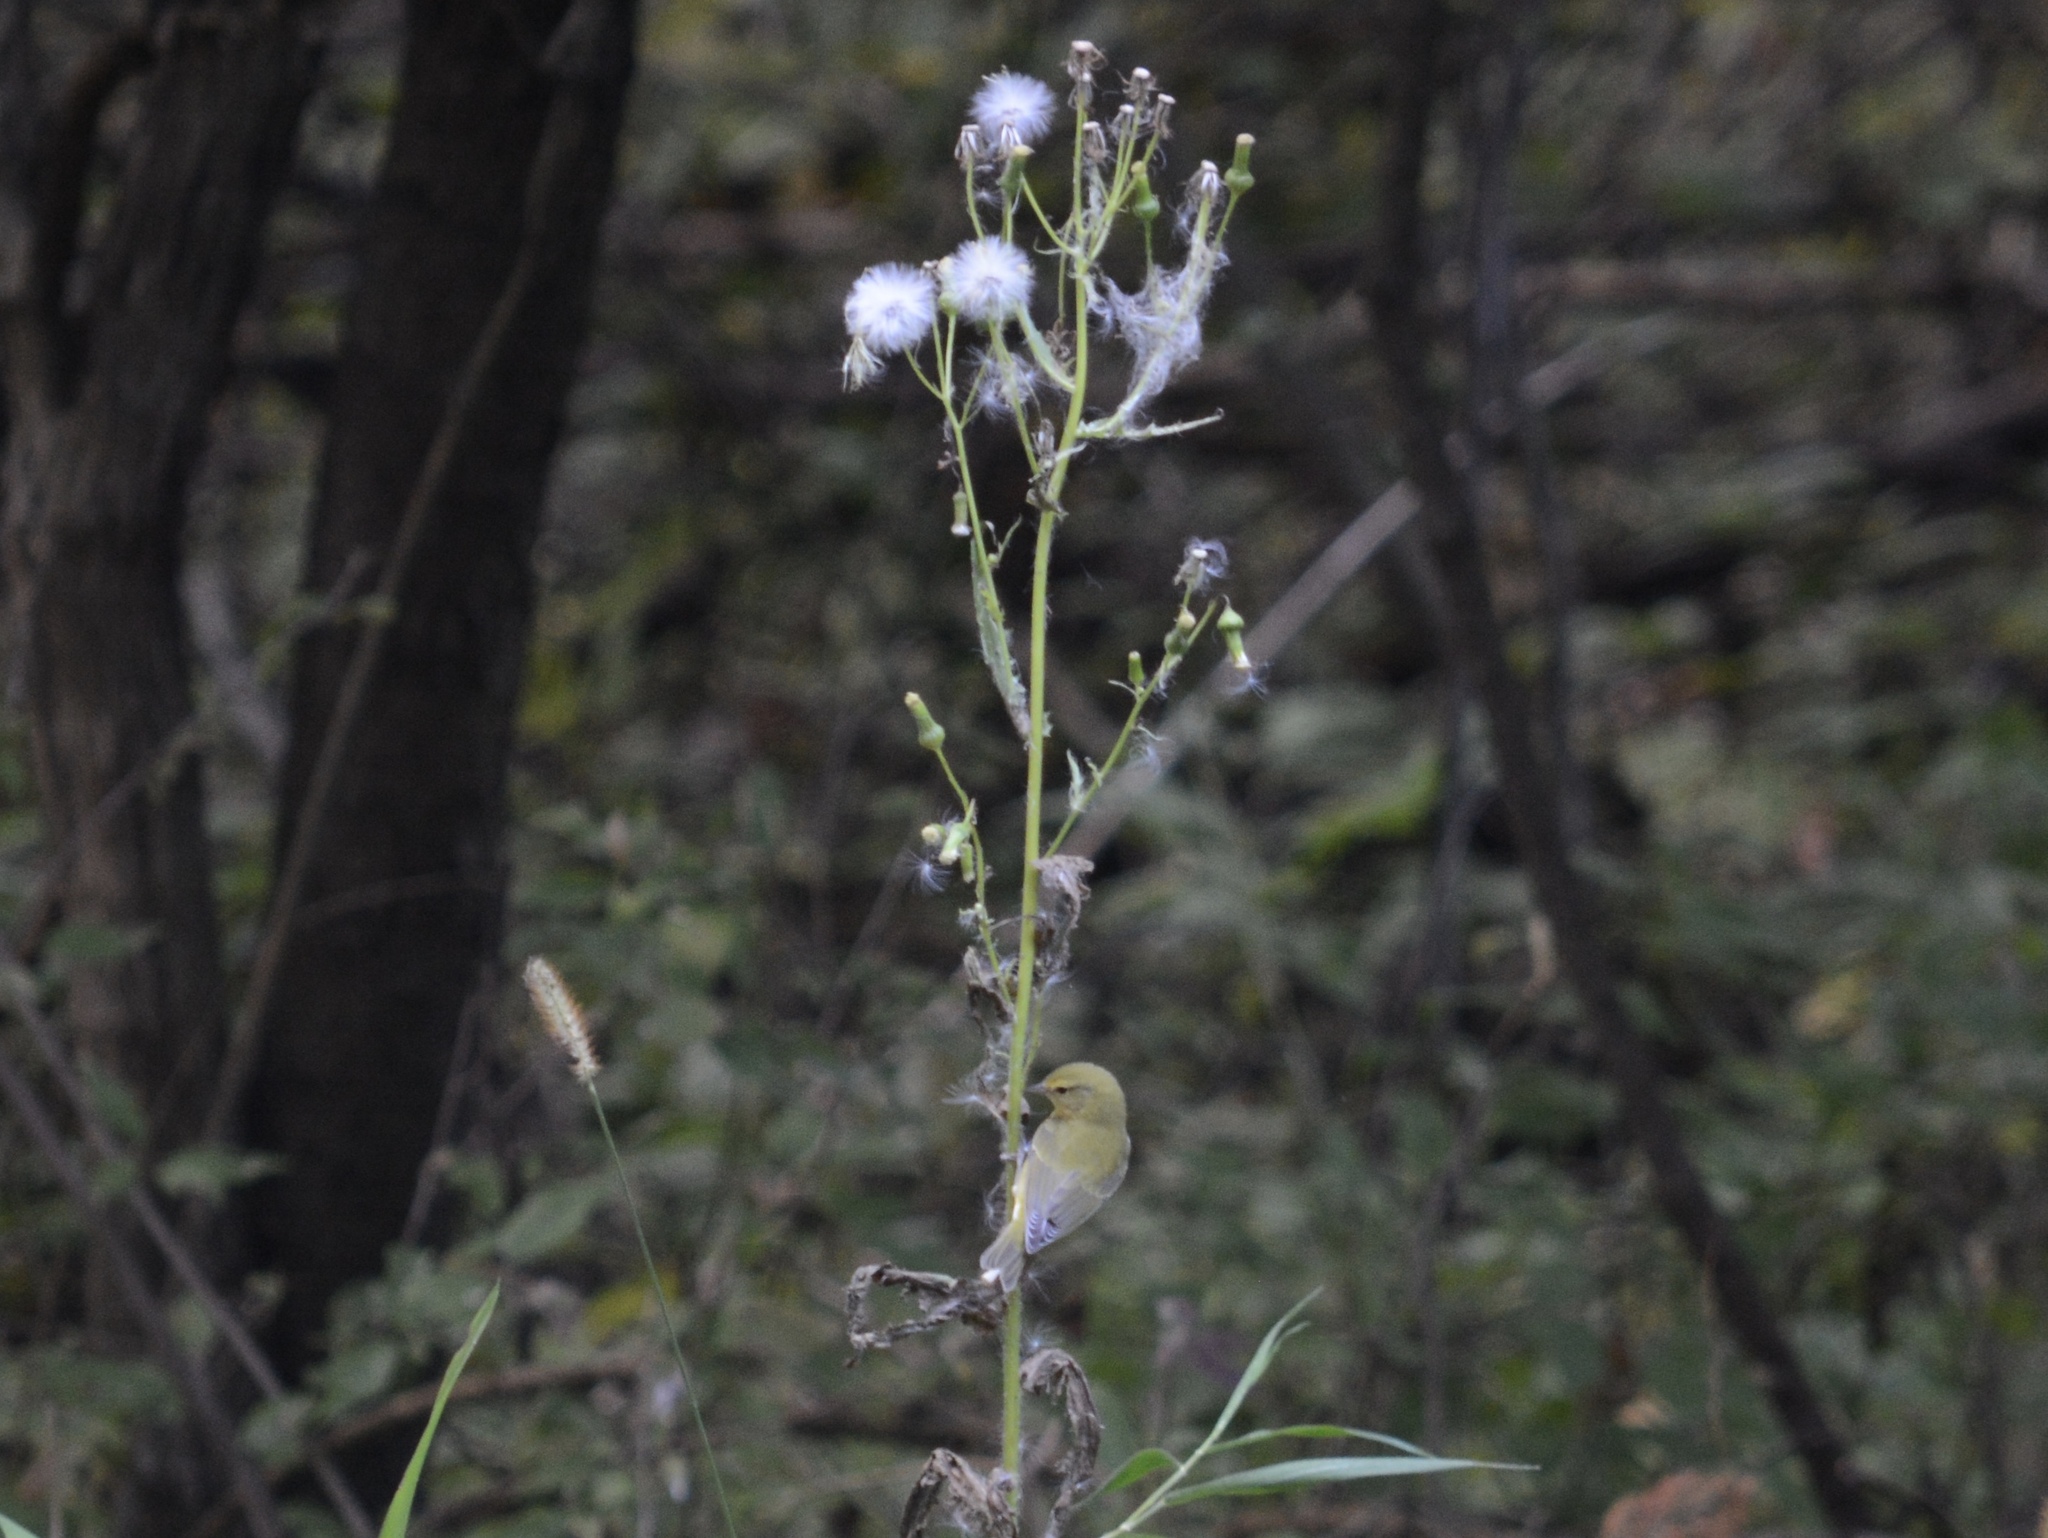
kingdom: Animalia
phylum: Chordata
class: Aves
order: Passeriformes
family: Parulidae
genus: Leiothlypis
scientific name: Leiothlypis peregrina
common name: Tennessee warbler
